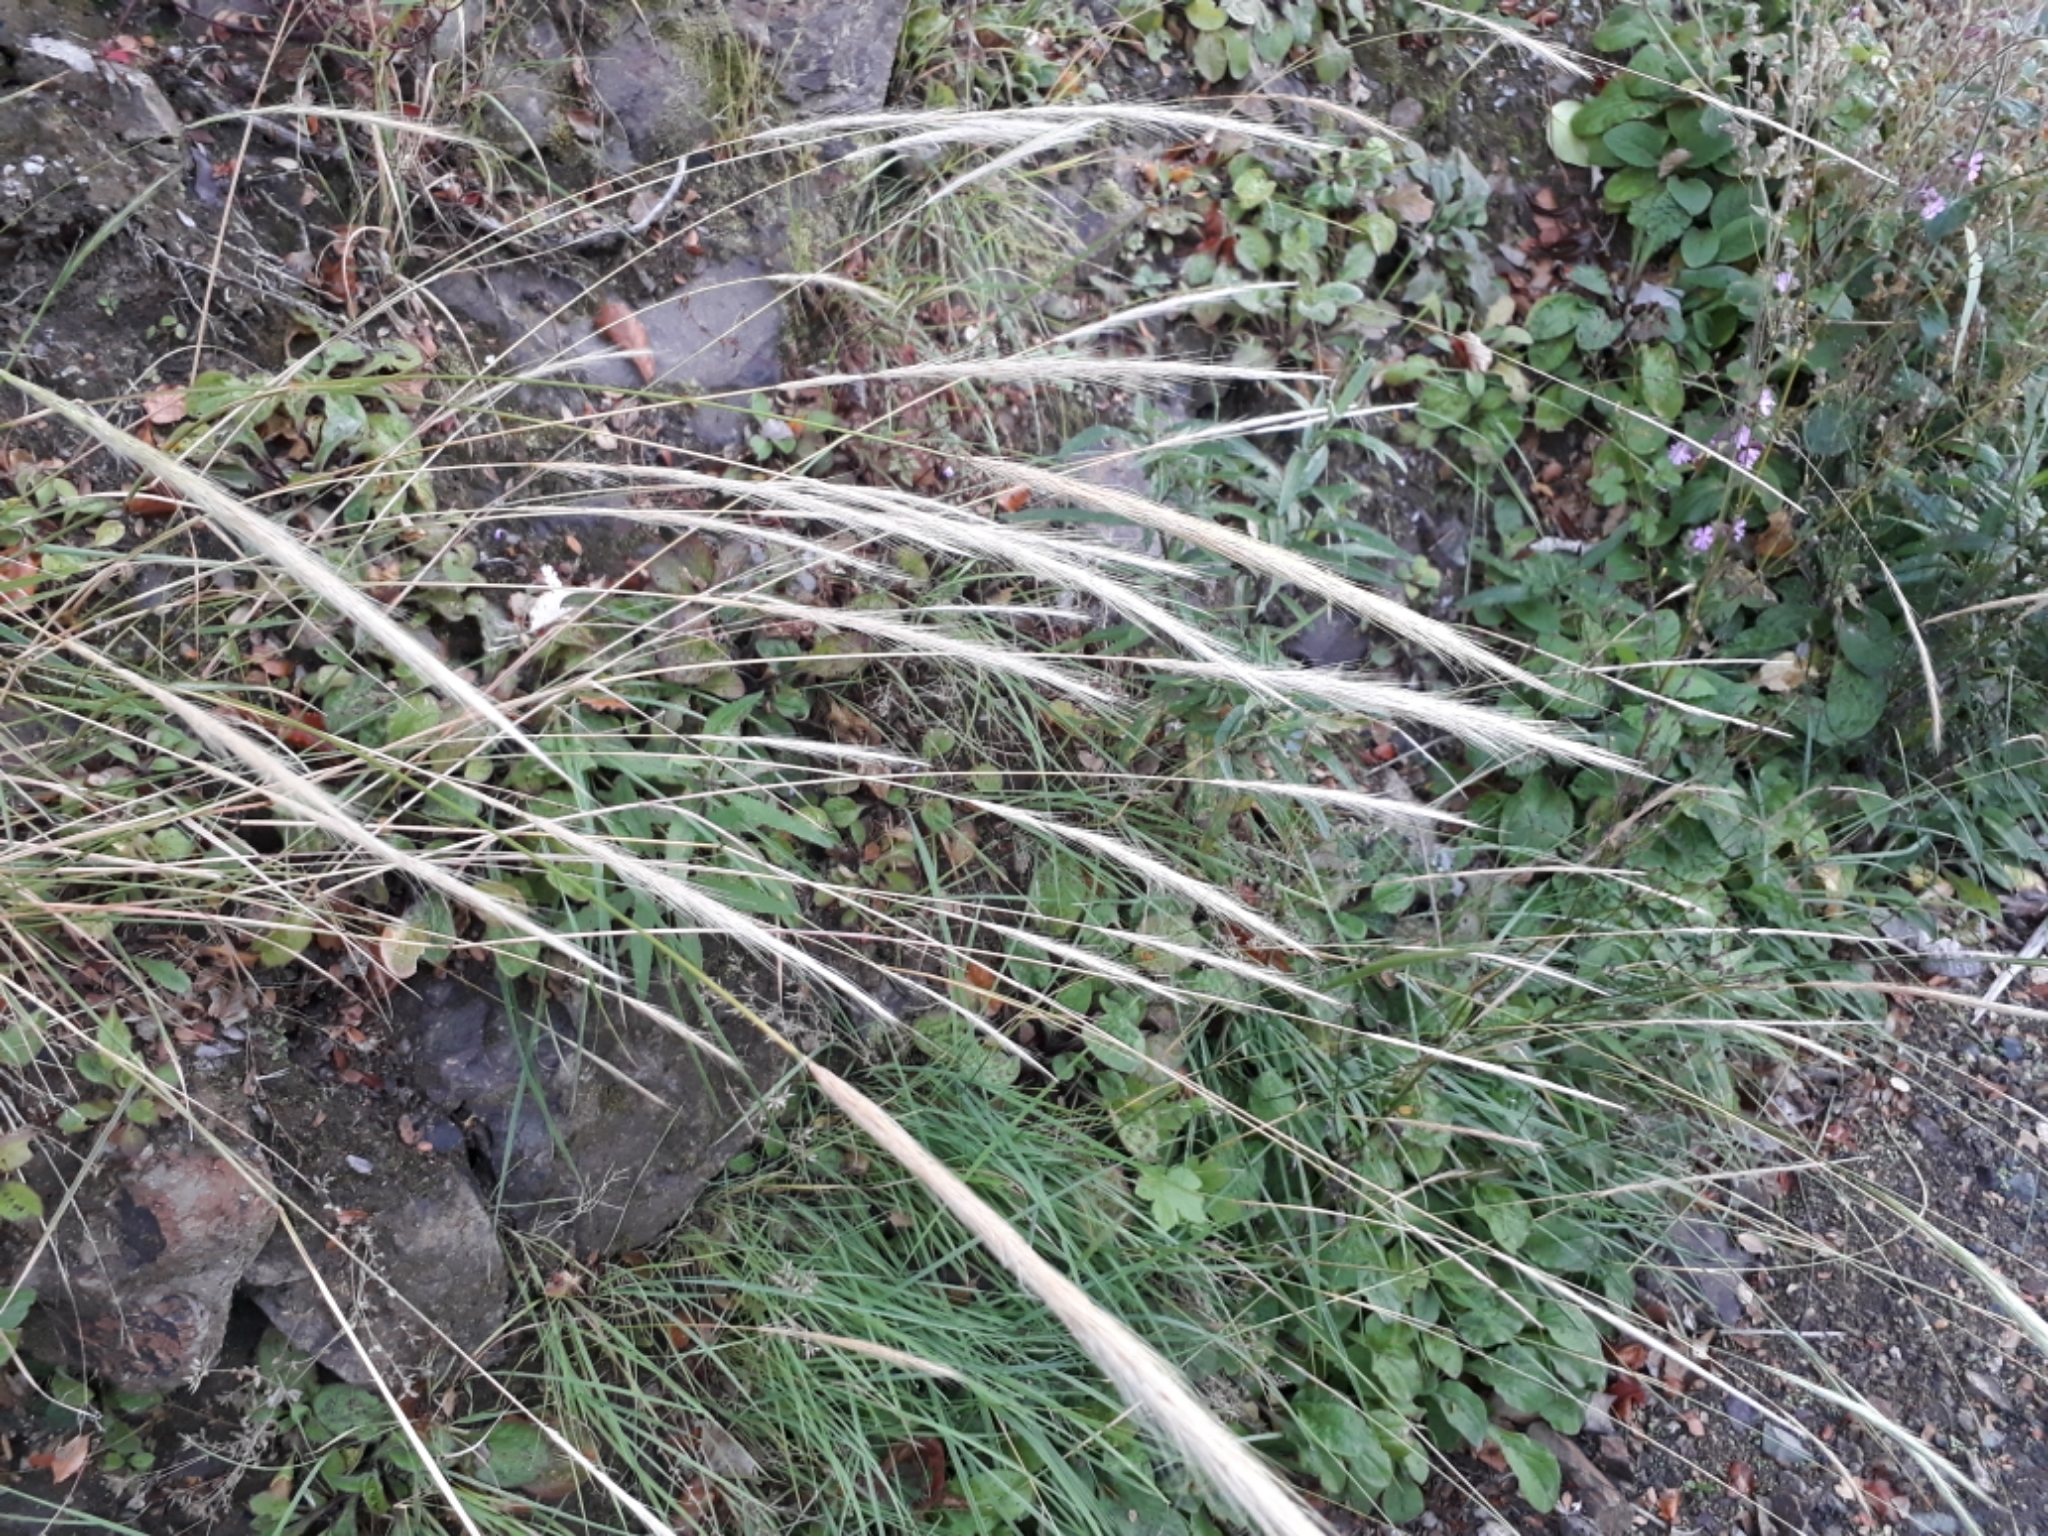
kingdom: Plantae
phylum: Tracheophyta
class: Liliopsida
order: Poales
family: Poaceae
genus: Dichelachne
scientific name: Dichelachne crinita
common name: Clovenfoot plumegrass
